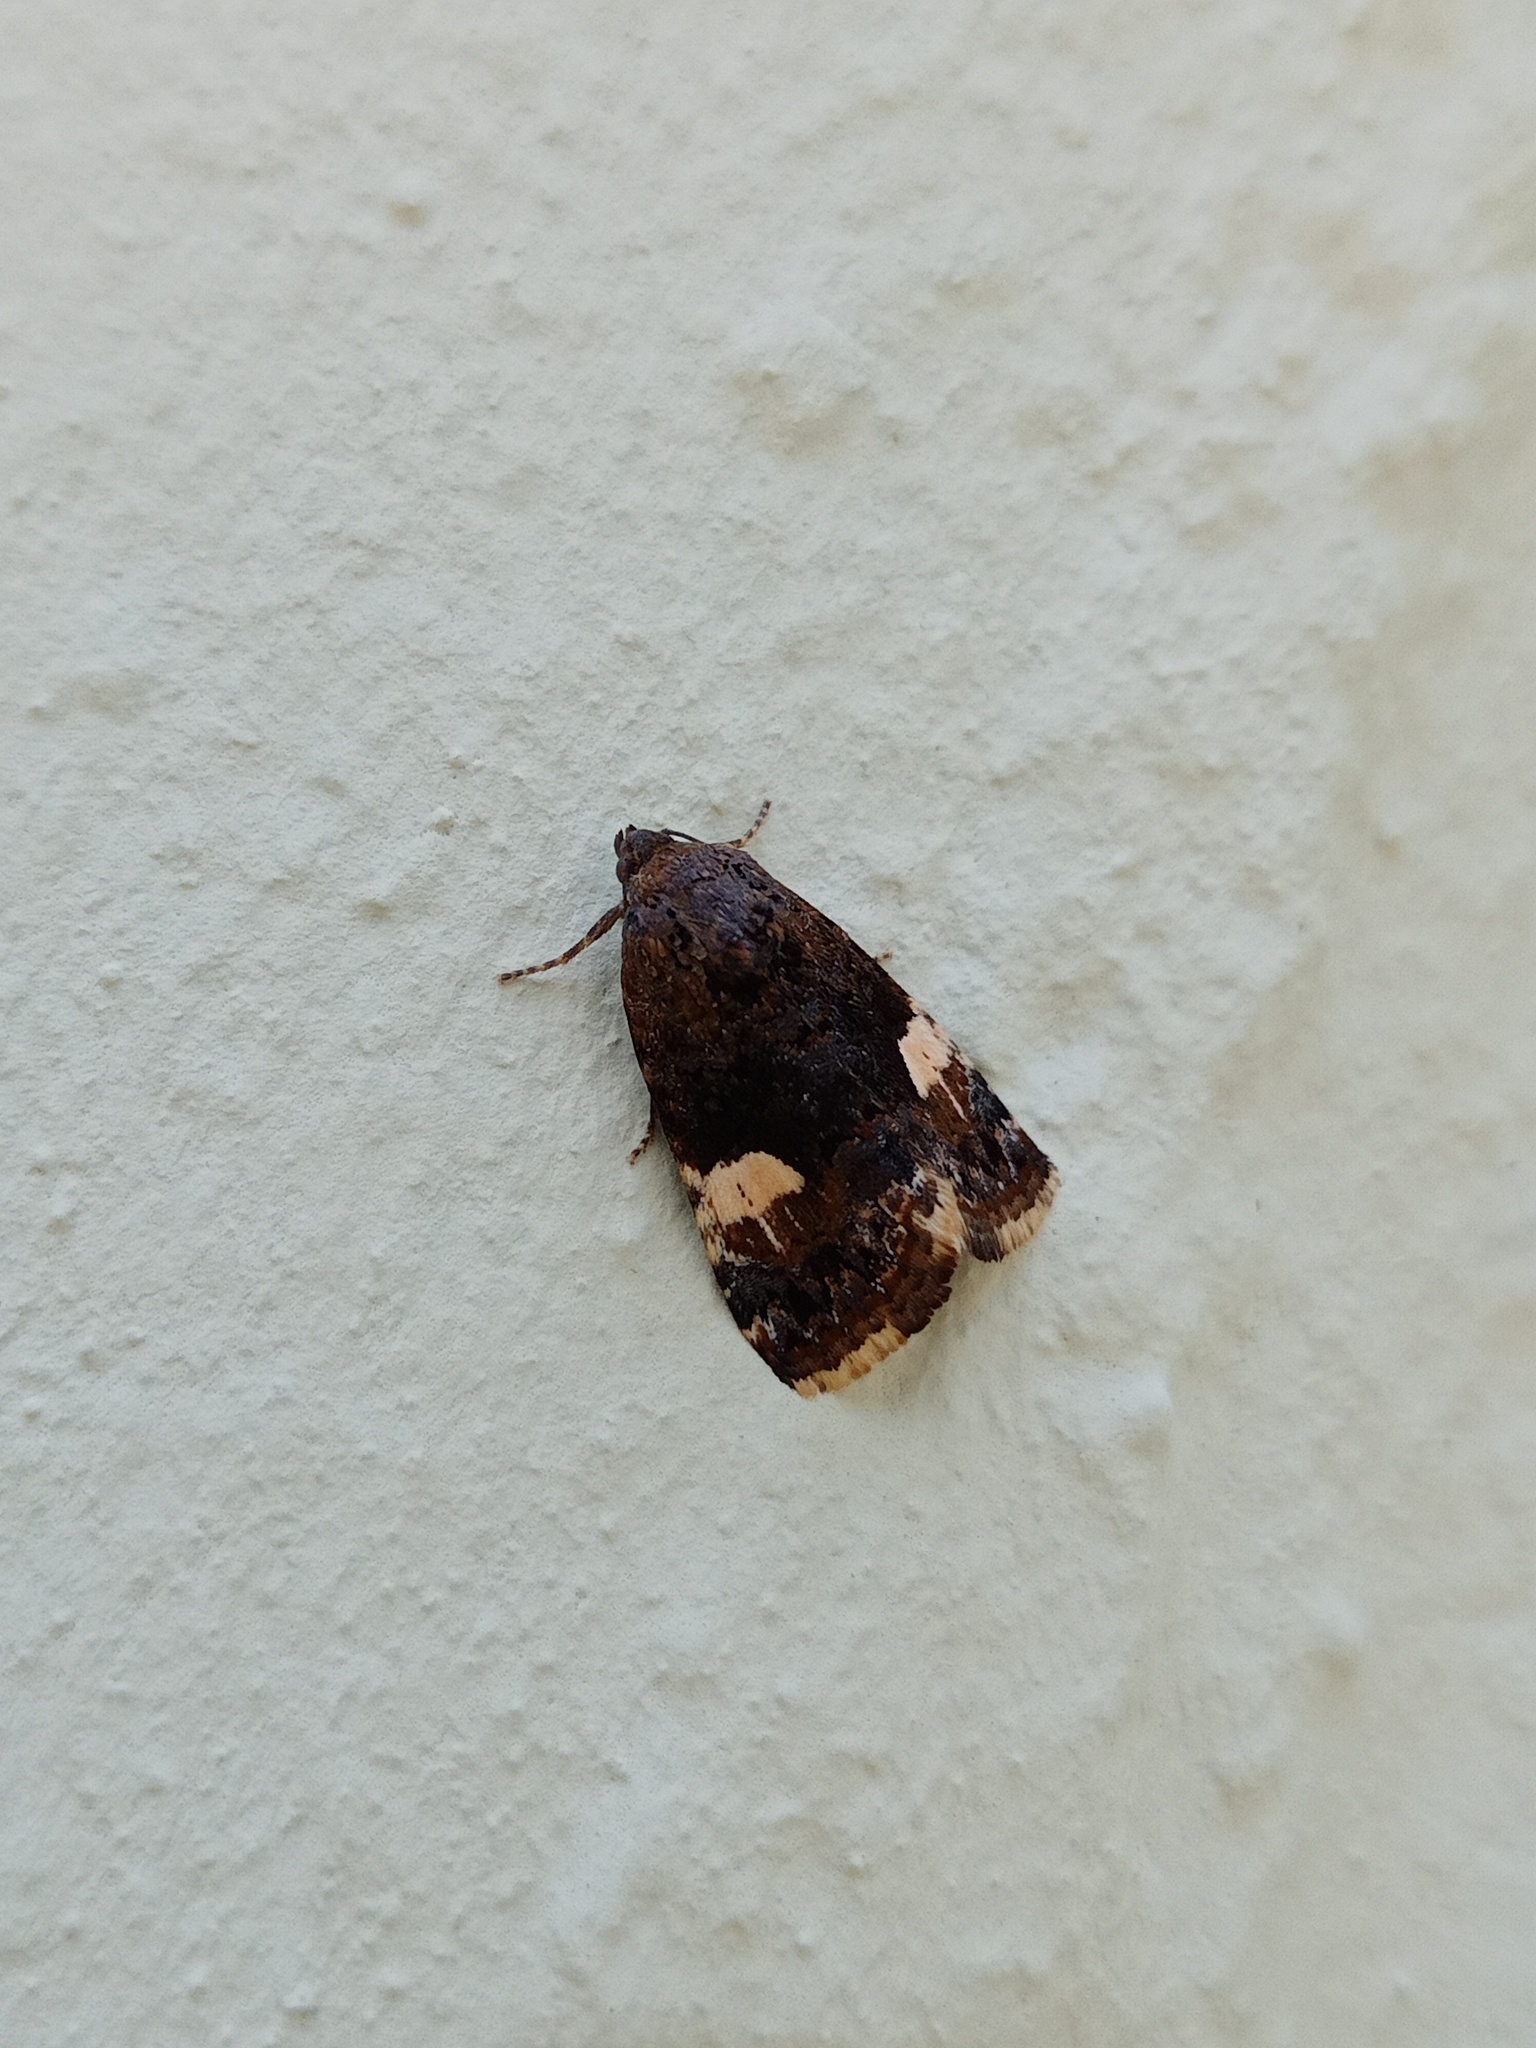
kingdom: Animalia
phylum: Arthropoda
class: Insecta
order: Lepidoptera
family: Erebidae
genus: Tyta
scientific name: Tyta luctuosa
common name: Four-spotted
